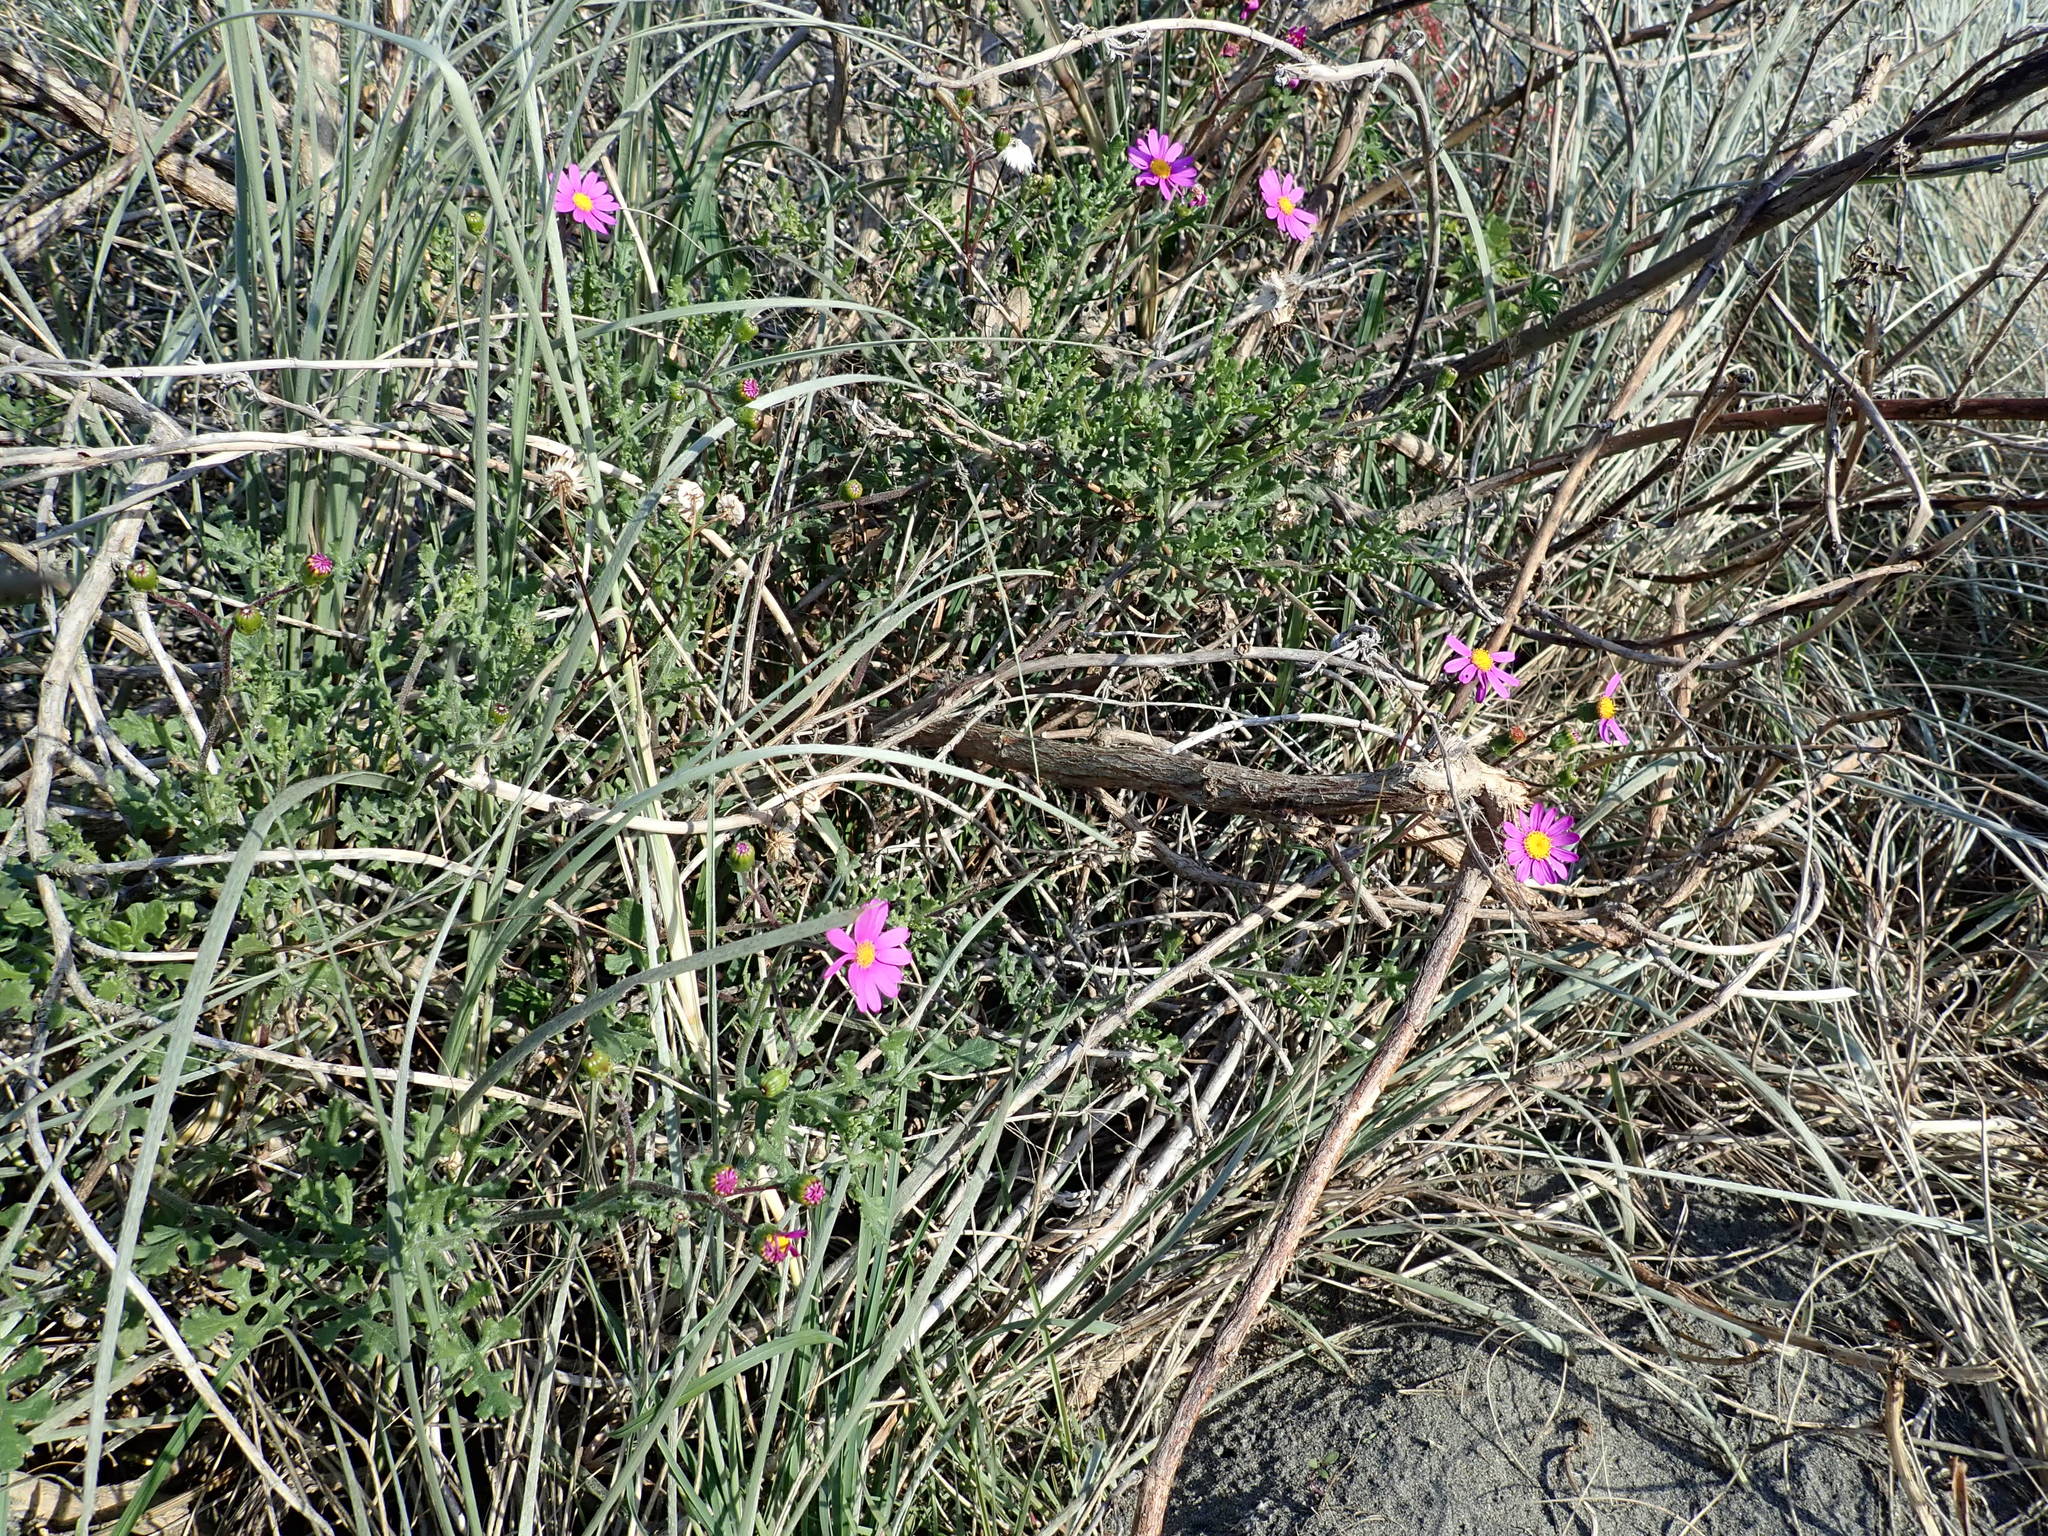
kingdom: Plantae
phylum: Tracheophyta
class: Magnoliopsida
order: Asterales
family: Asteraceae
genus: Senecio
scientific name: Senecio elegans
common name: Purple groundsel
